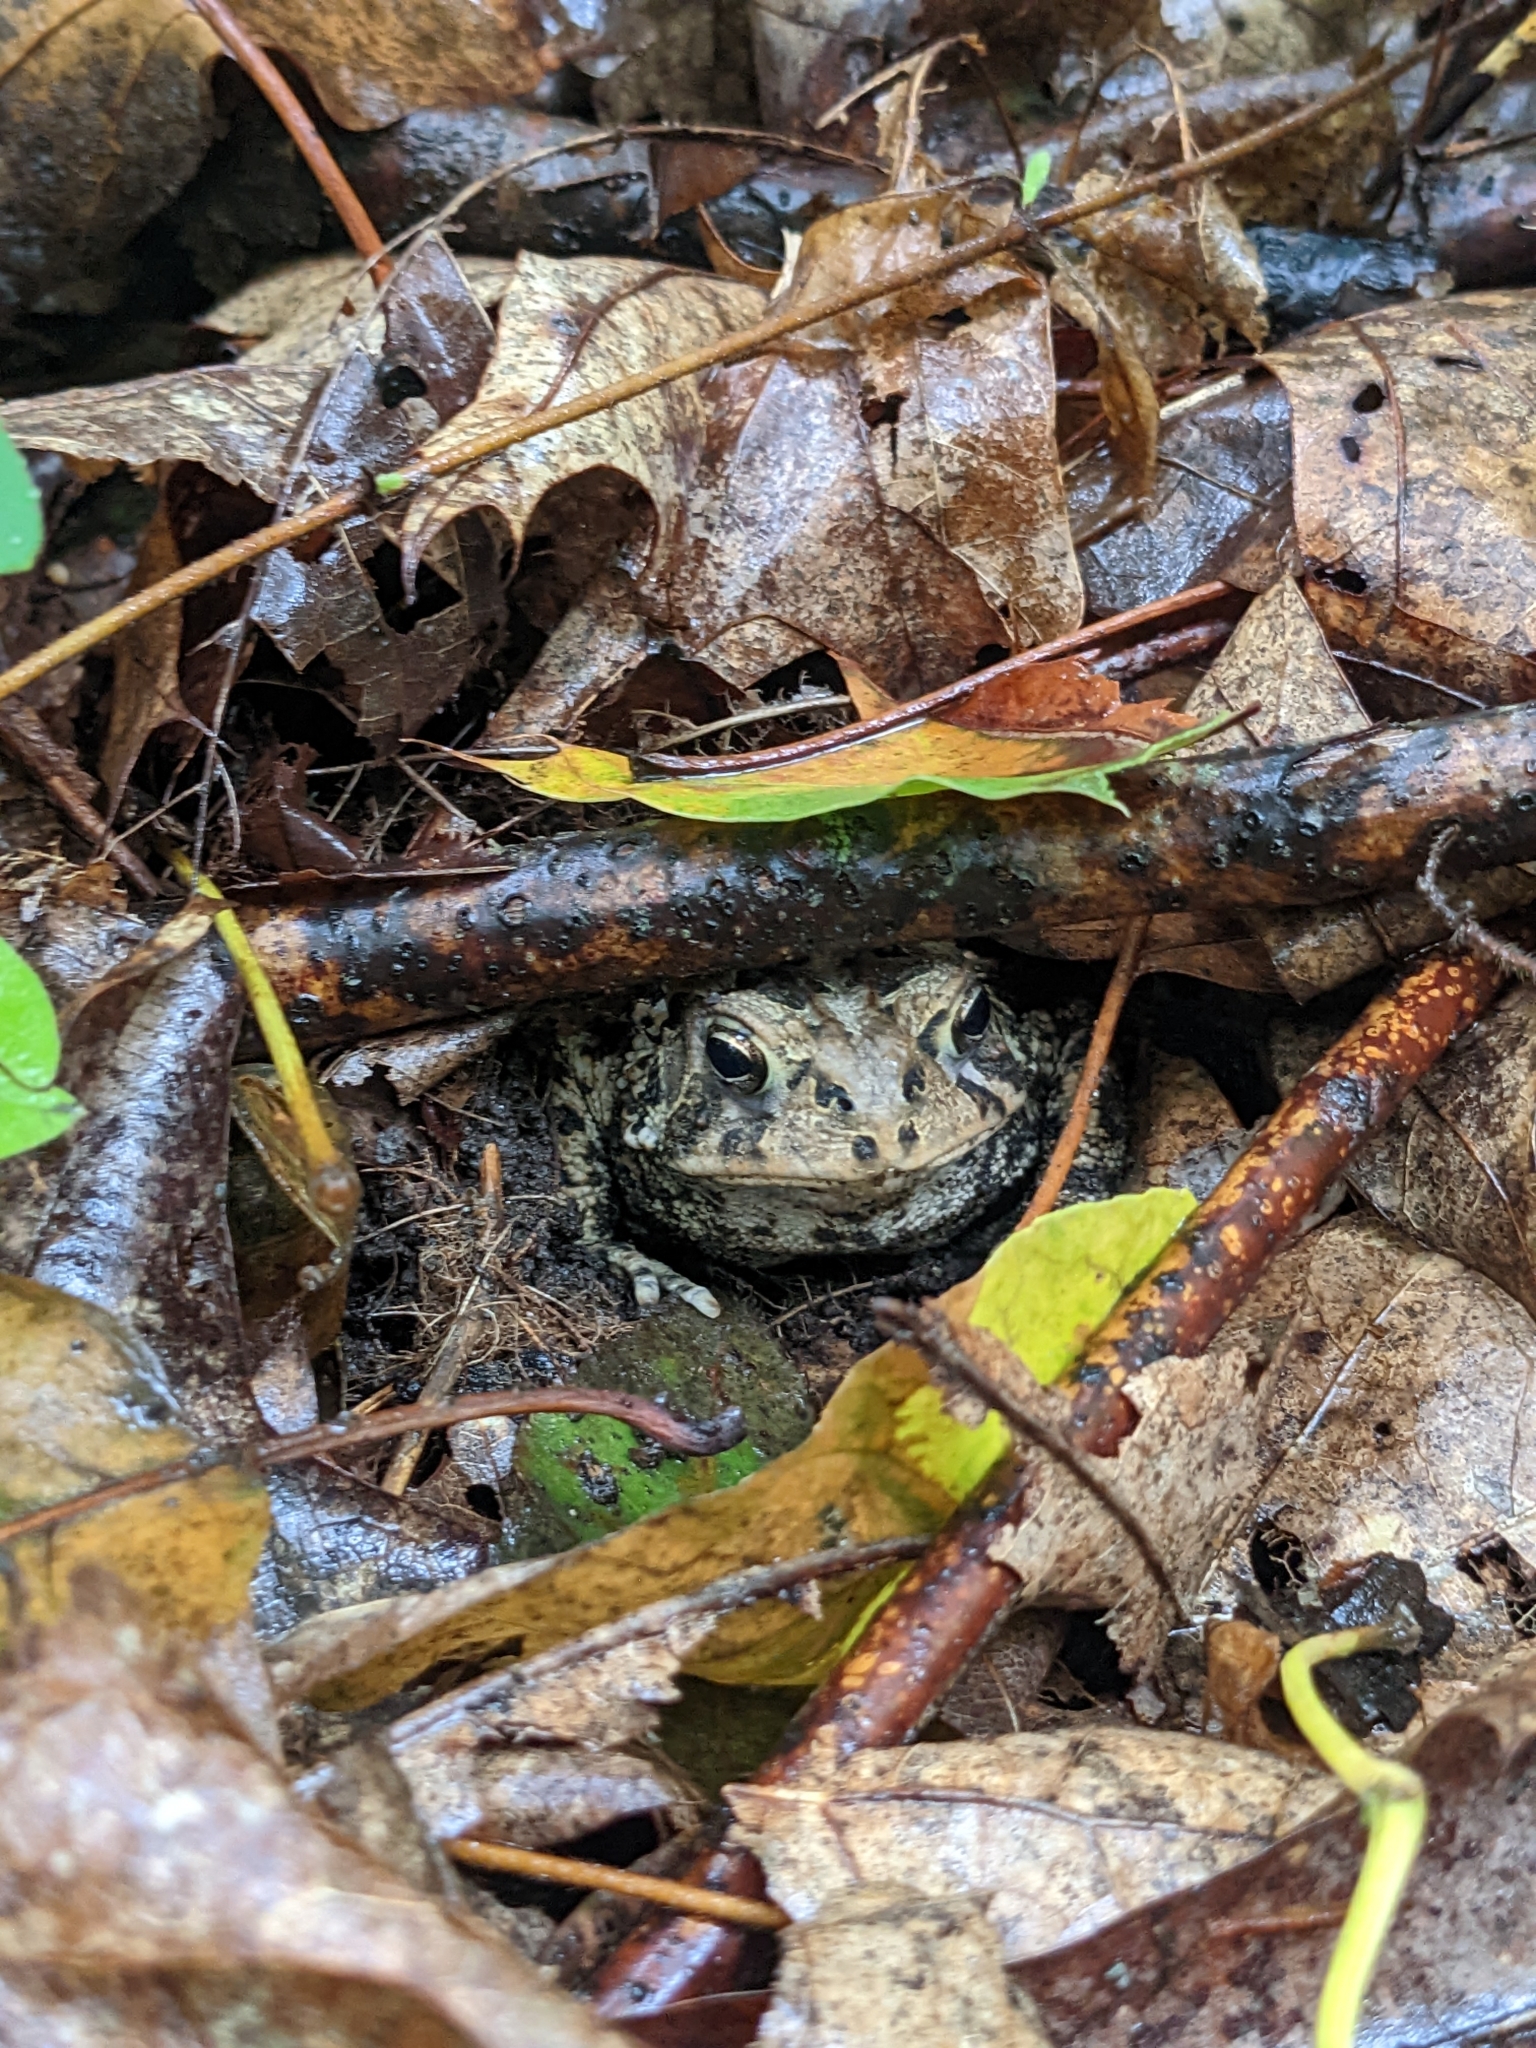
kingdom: Animalia
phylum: Chordata
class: Amphibia
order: Anura
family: Bufonidae
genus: Anaxyrus
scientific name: Anaxyrus americanus
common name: American toad
